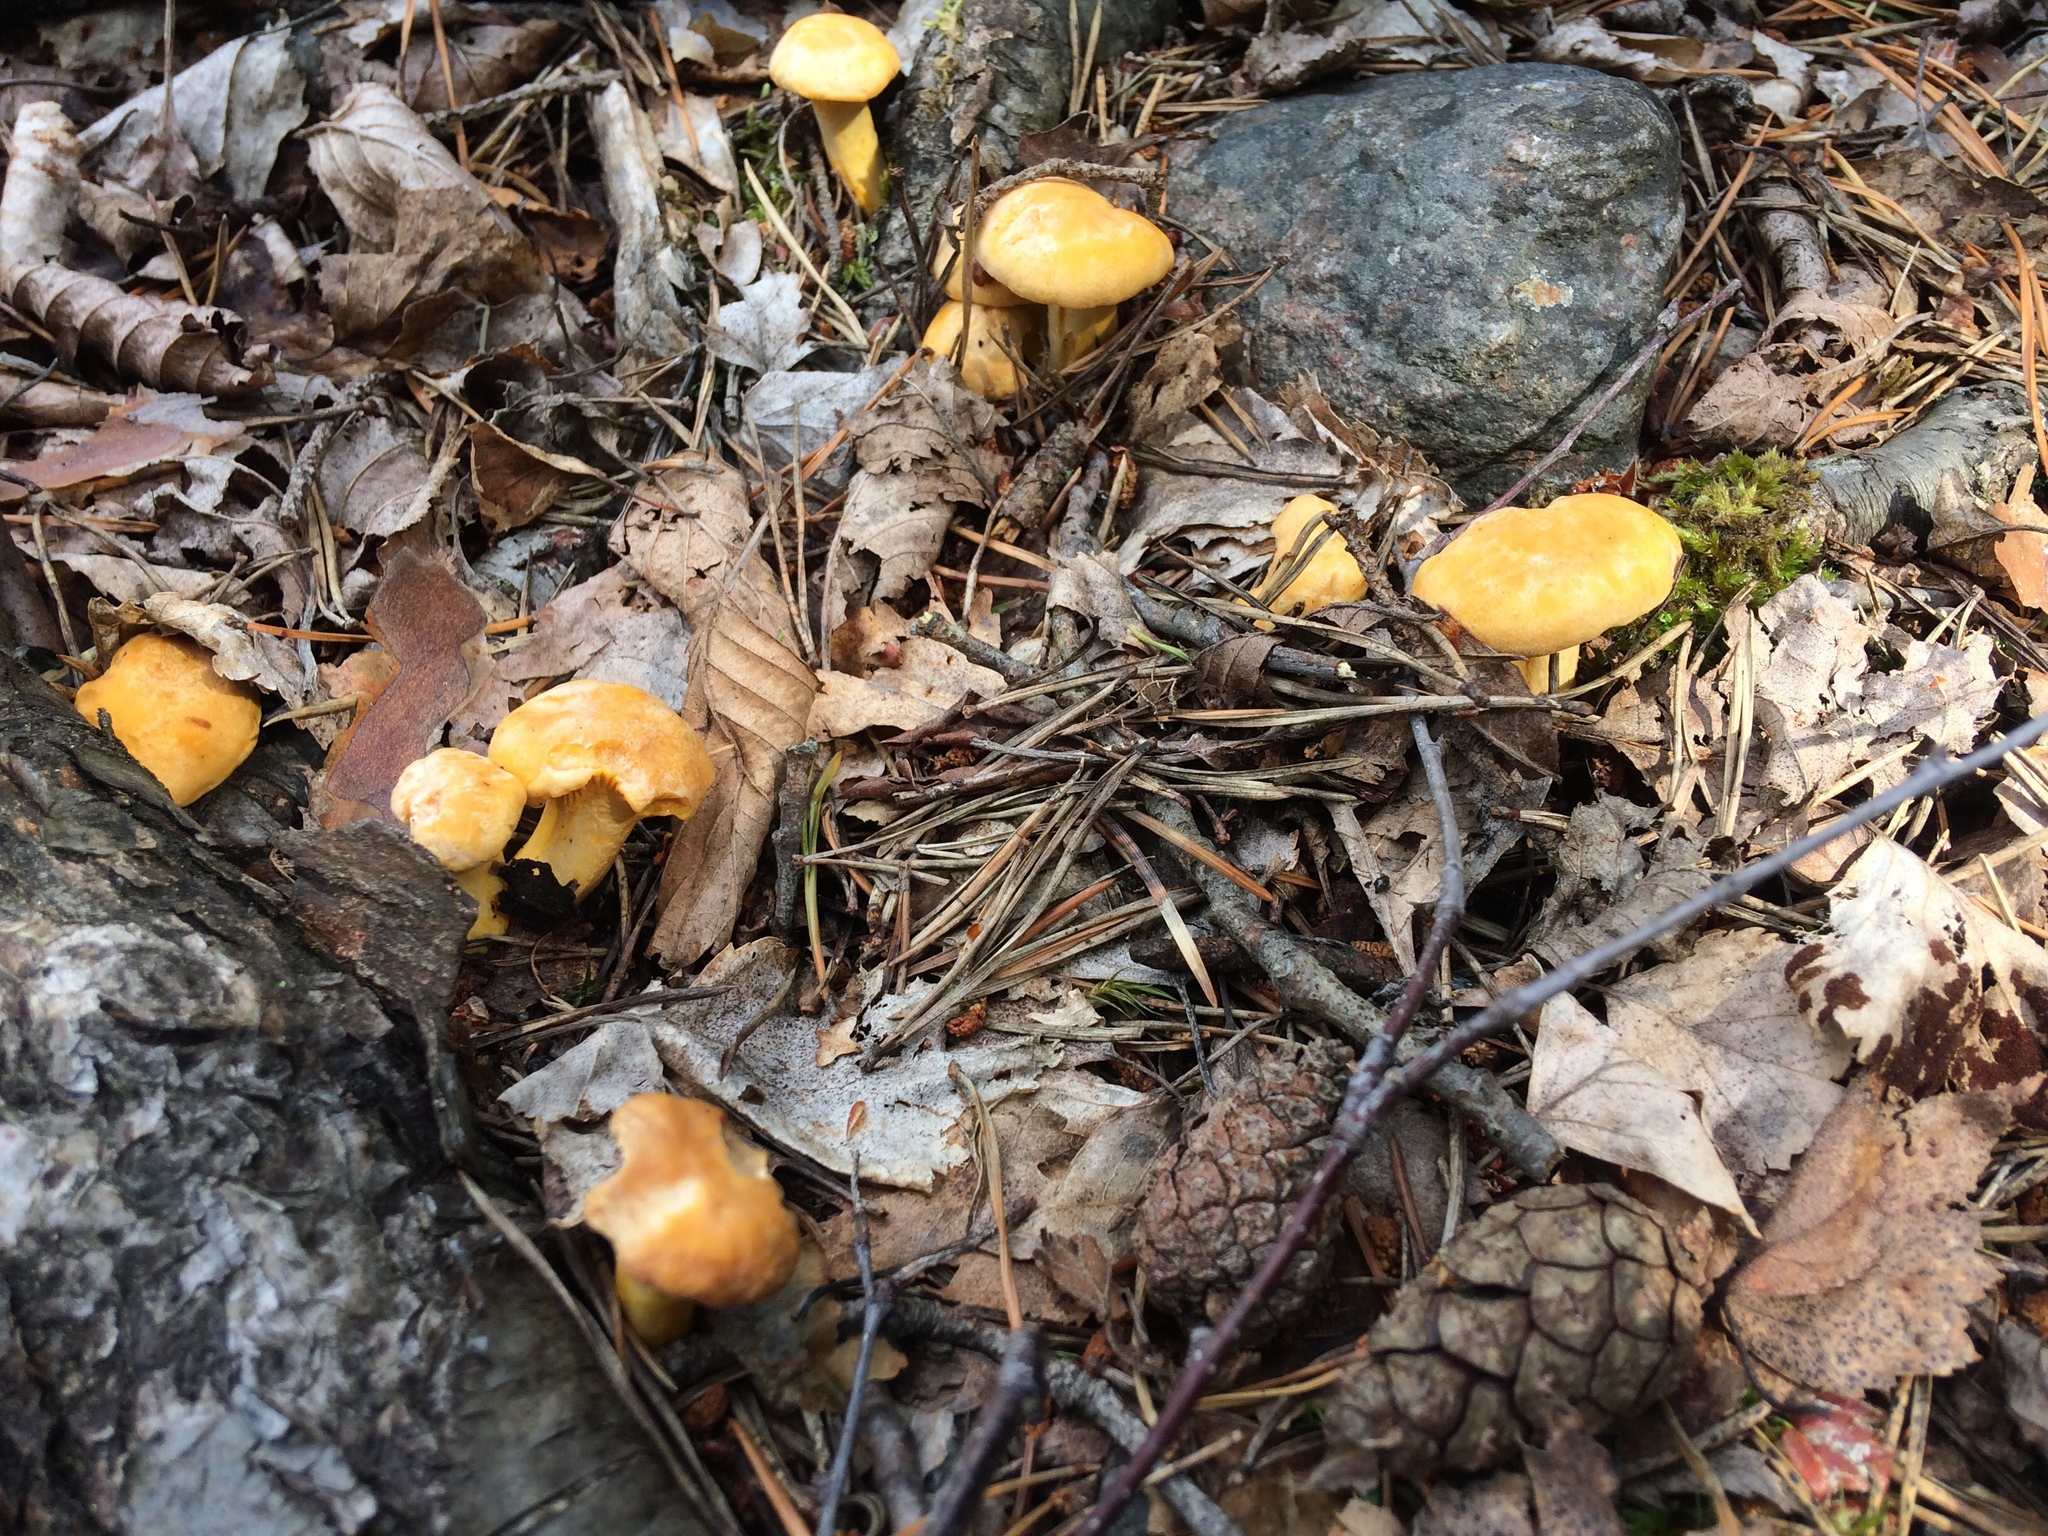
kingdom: Fungi
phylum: Basidiomycota
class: Agaricomycetes
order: Cantharellales
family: Hydnaceae
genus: Cantharellus
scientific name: Cantharellus cibarius
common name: Chanterelle
